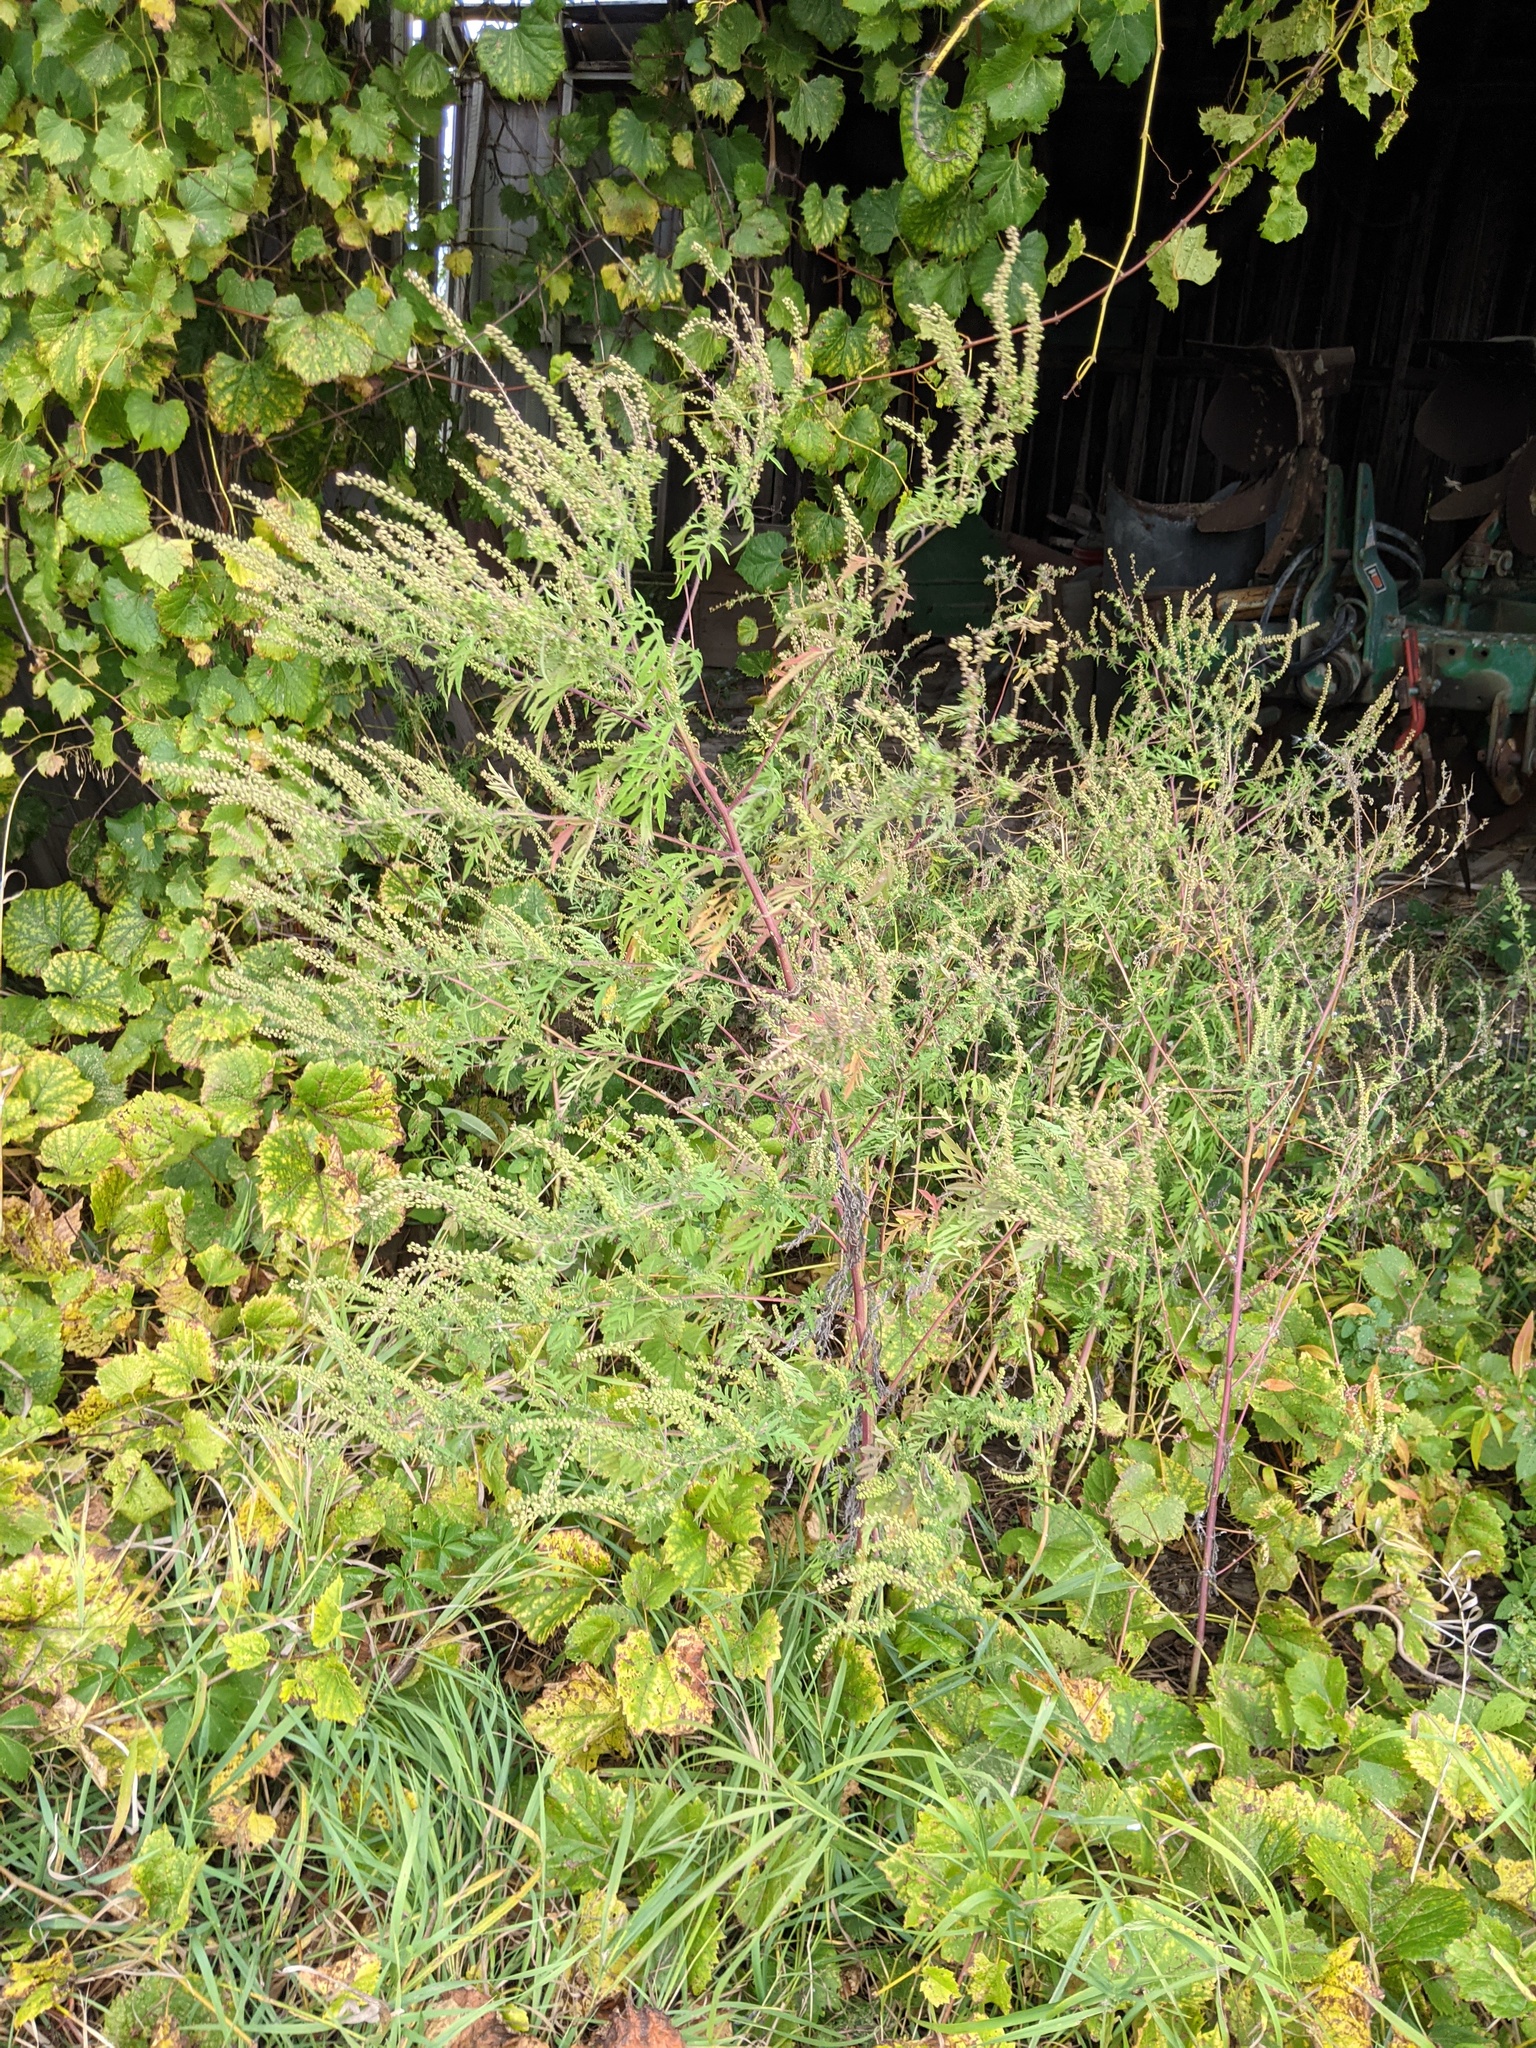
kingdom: Plantae
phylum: Tracheophyta
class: Magnoliopsida
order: Asterales
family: Asteraceae
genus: Ambrosia
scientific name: Ambrosia artemisiifolia
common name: Annual ragweed
